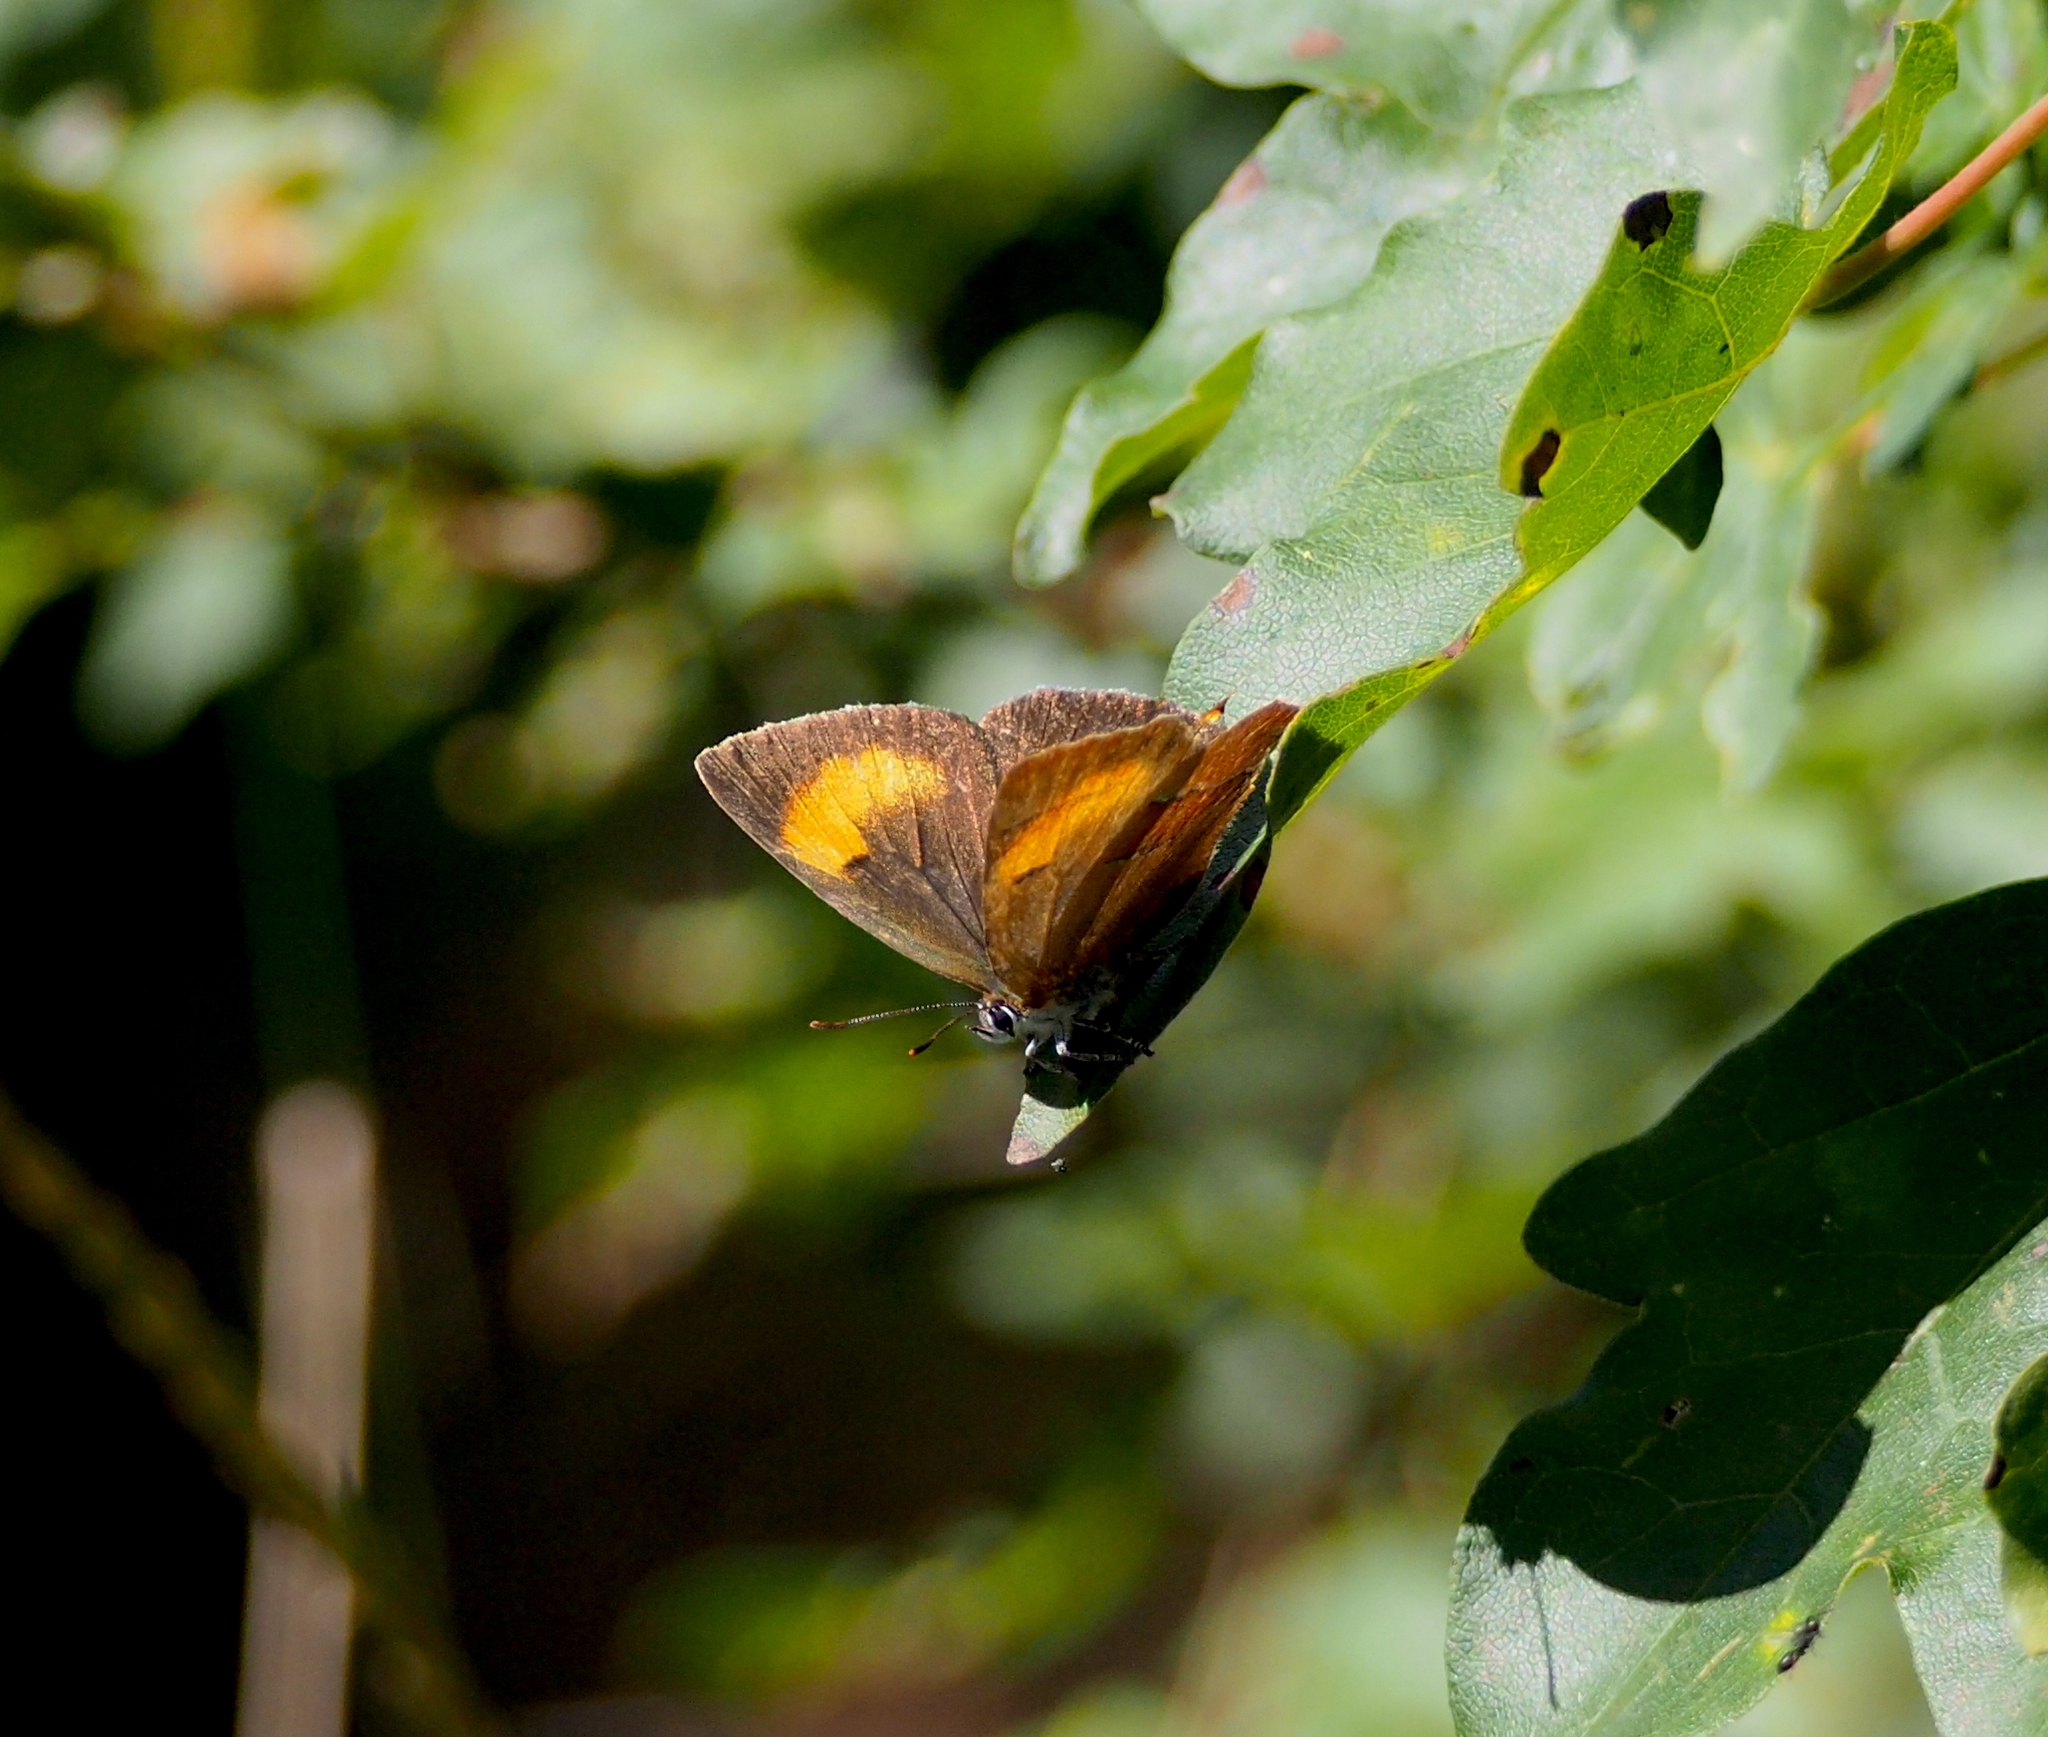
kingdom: Animalia
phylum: Arthropoda
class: Insecta
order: Lepidoptera
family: Lycaenidae
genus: Thecla
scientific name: Thecla betulae
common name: Brown hairstreak
